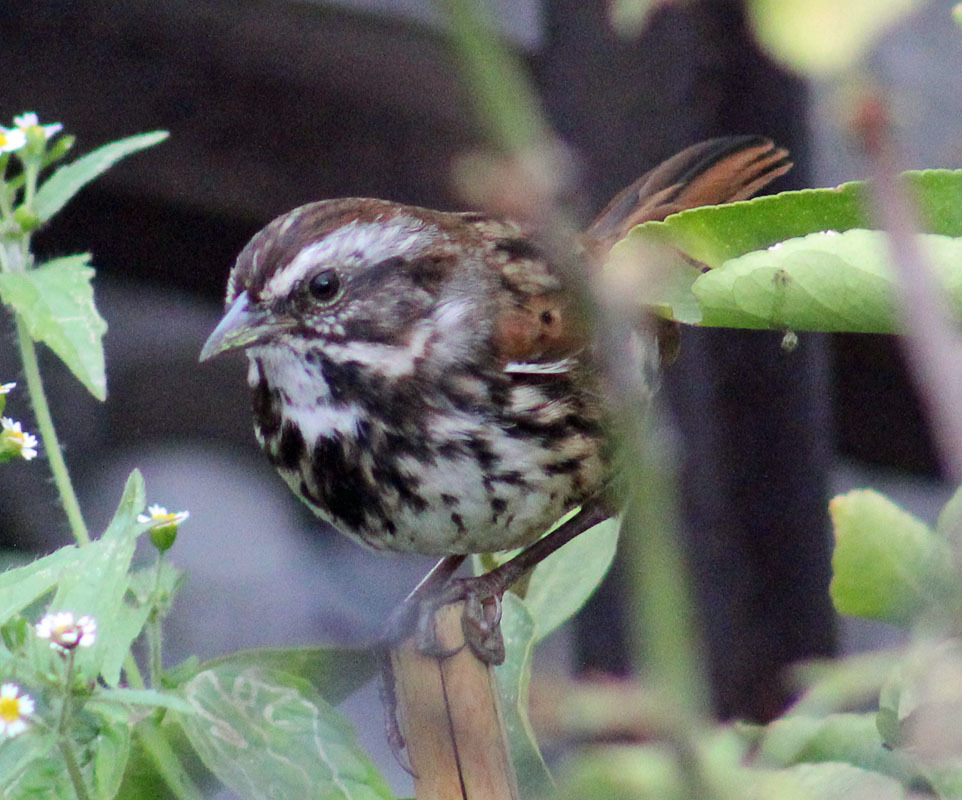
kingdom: Animalia
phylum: Chordata
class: Aves
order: Passeriformes
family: Passerellidae
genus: Melospiza
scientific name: Melospiza melodia
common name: Song sparrow
